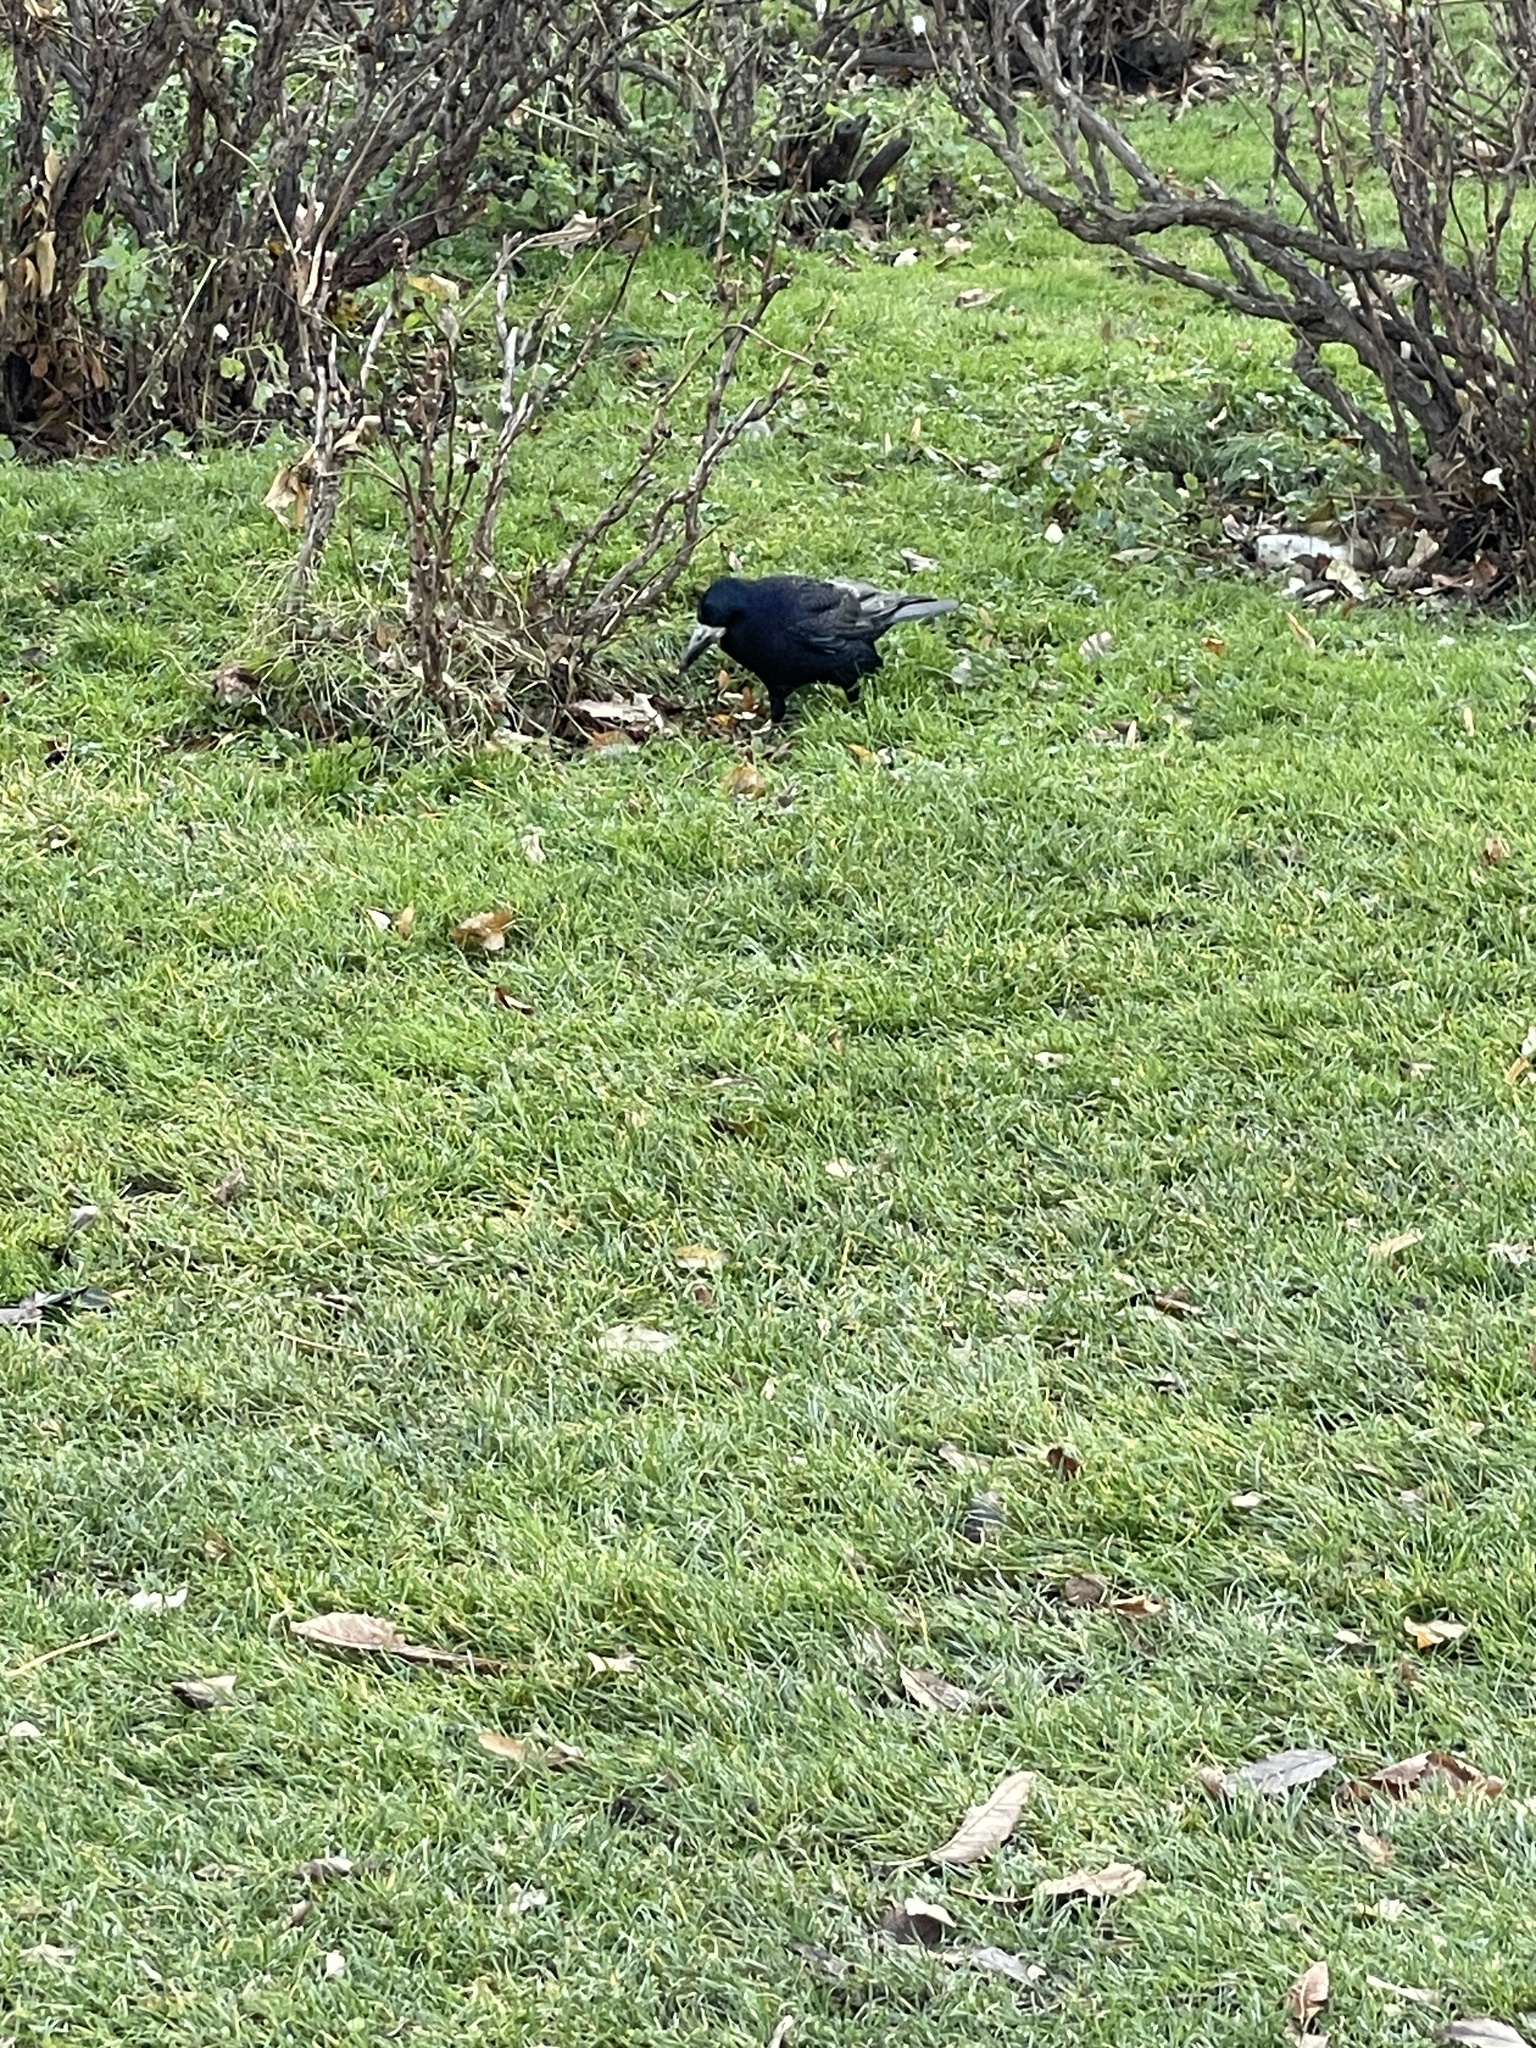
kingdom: Animalia
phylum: Chordata
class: Aves
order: Passeriformes
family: Corvidae
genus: Corvus
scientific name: Corvus frugilegus
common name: Rook
